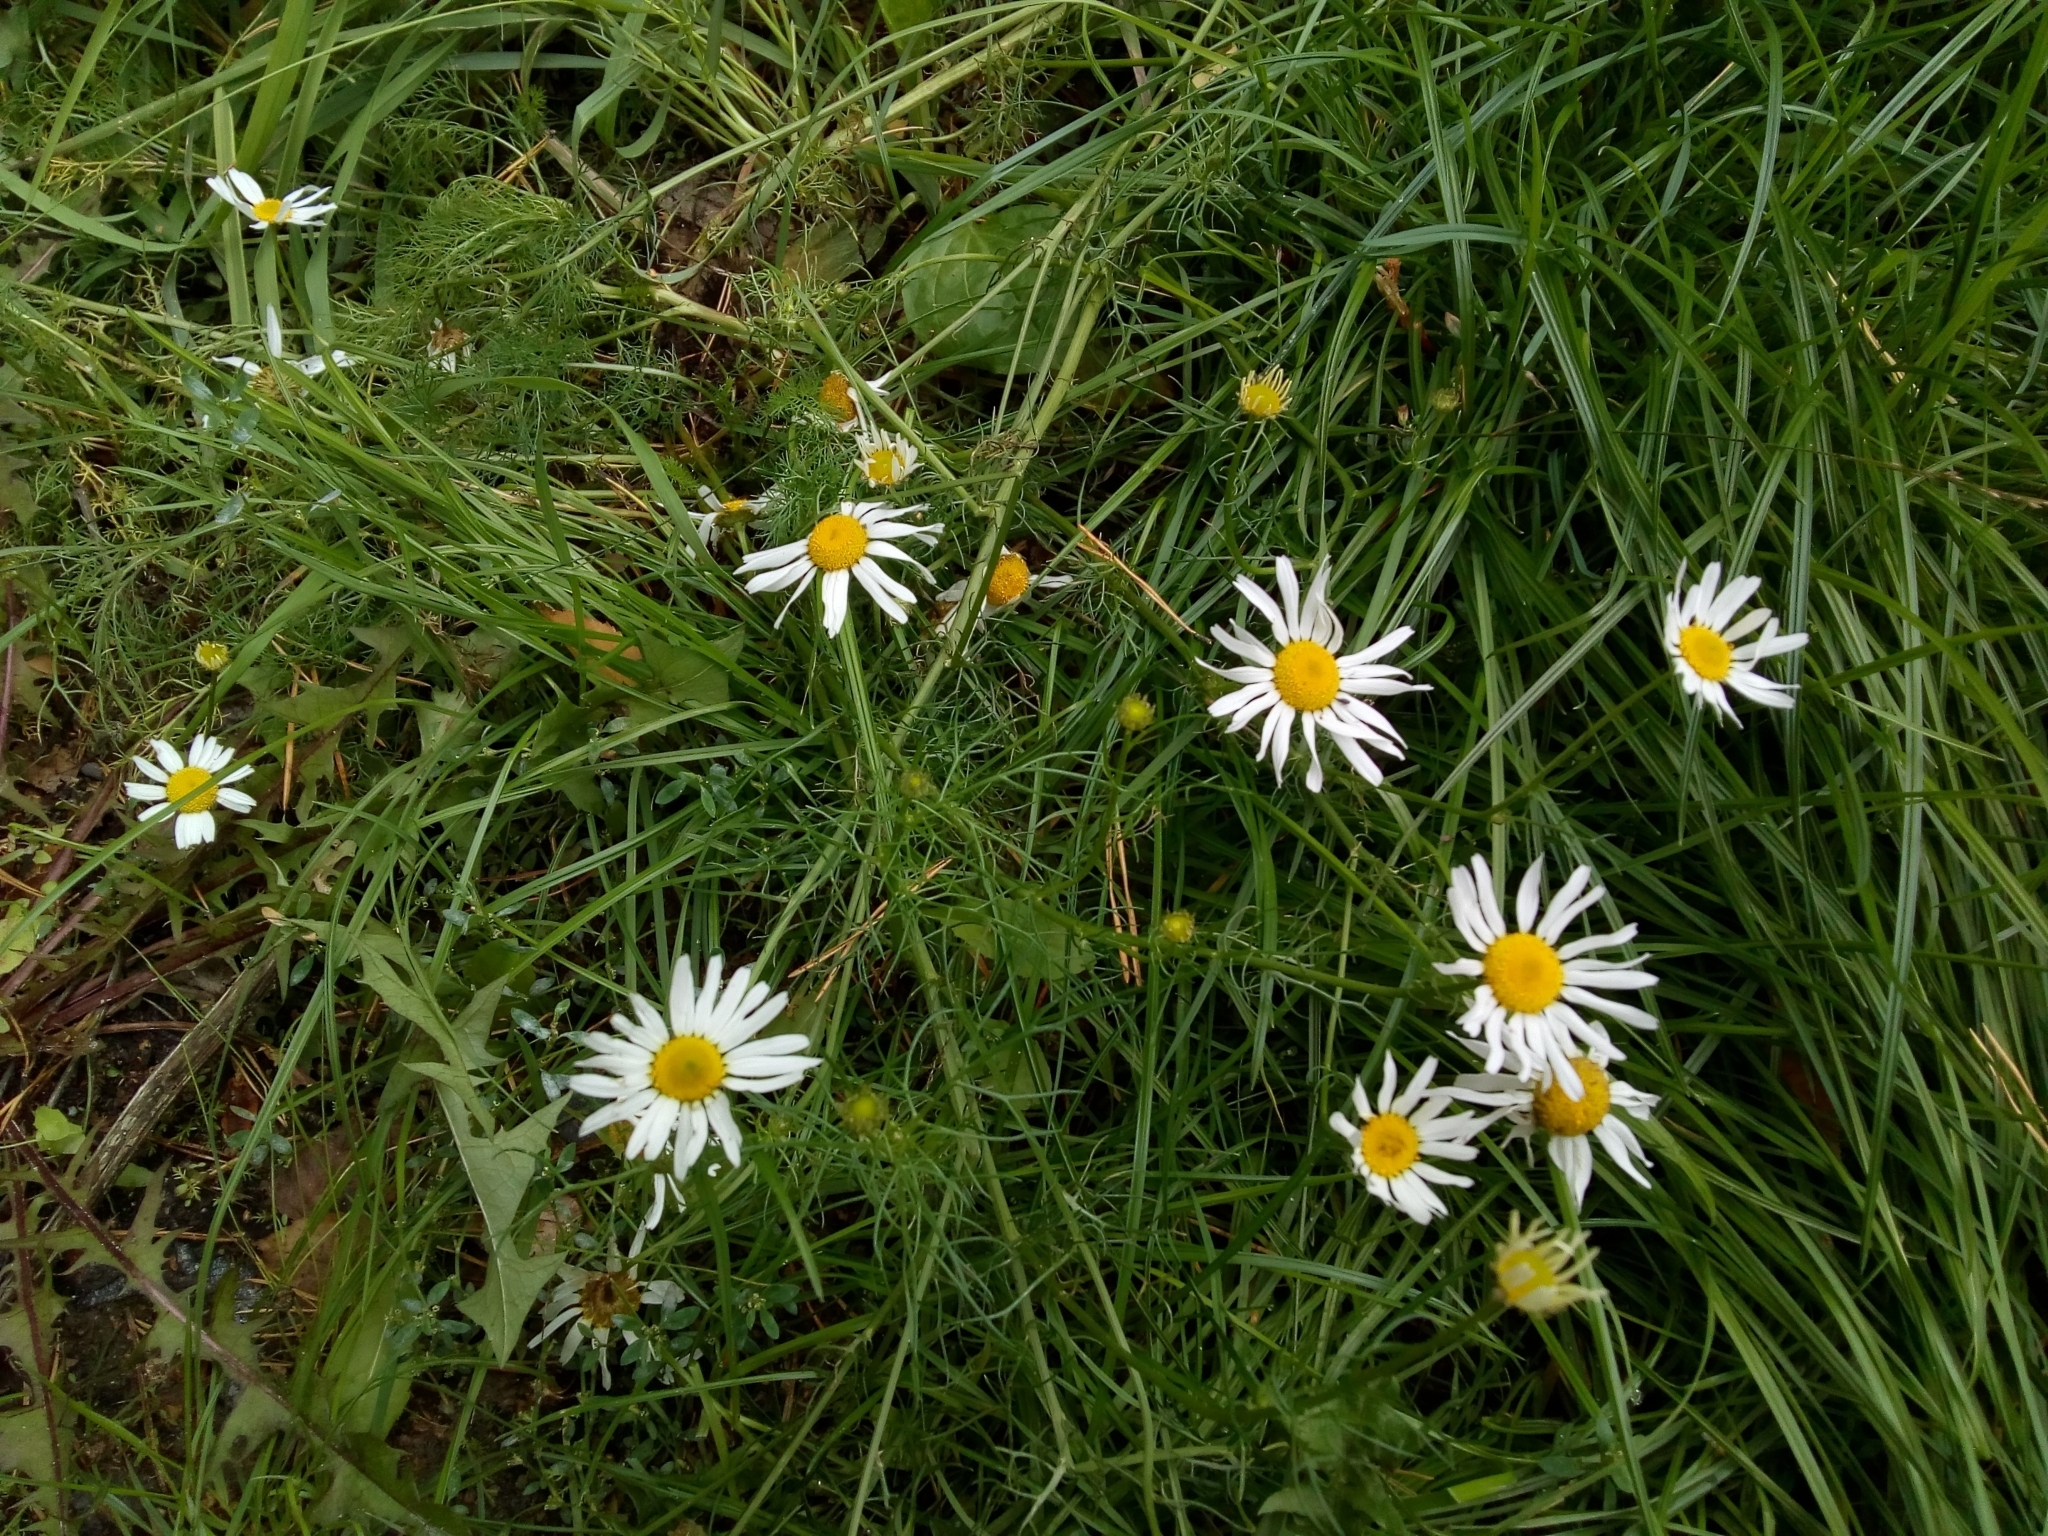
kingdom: Plantae
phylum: Tracheophyta
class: Magnoliopsida
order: Asterales
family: Asteraceae
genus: Tripleurospermum
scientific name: Tripleurospermum inodorum
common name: Scentless mayweed
